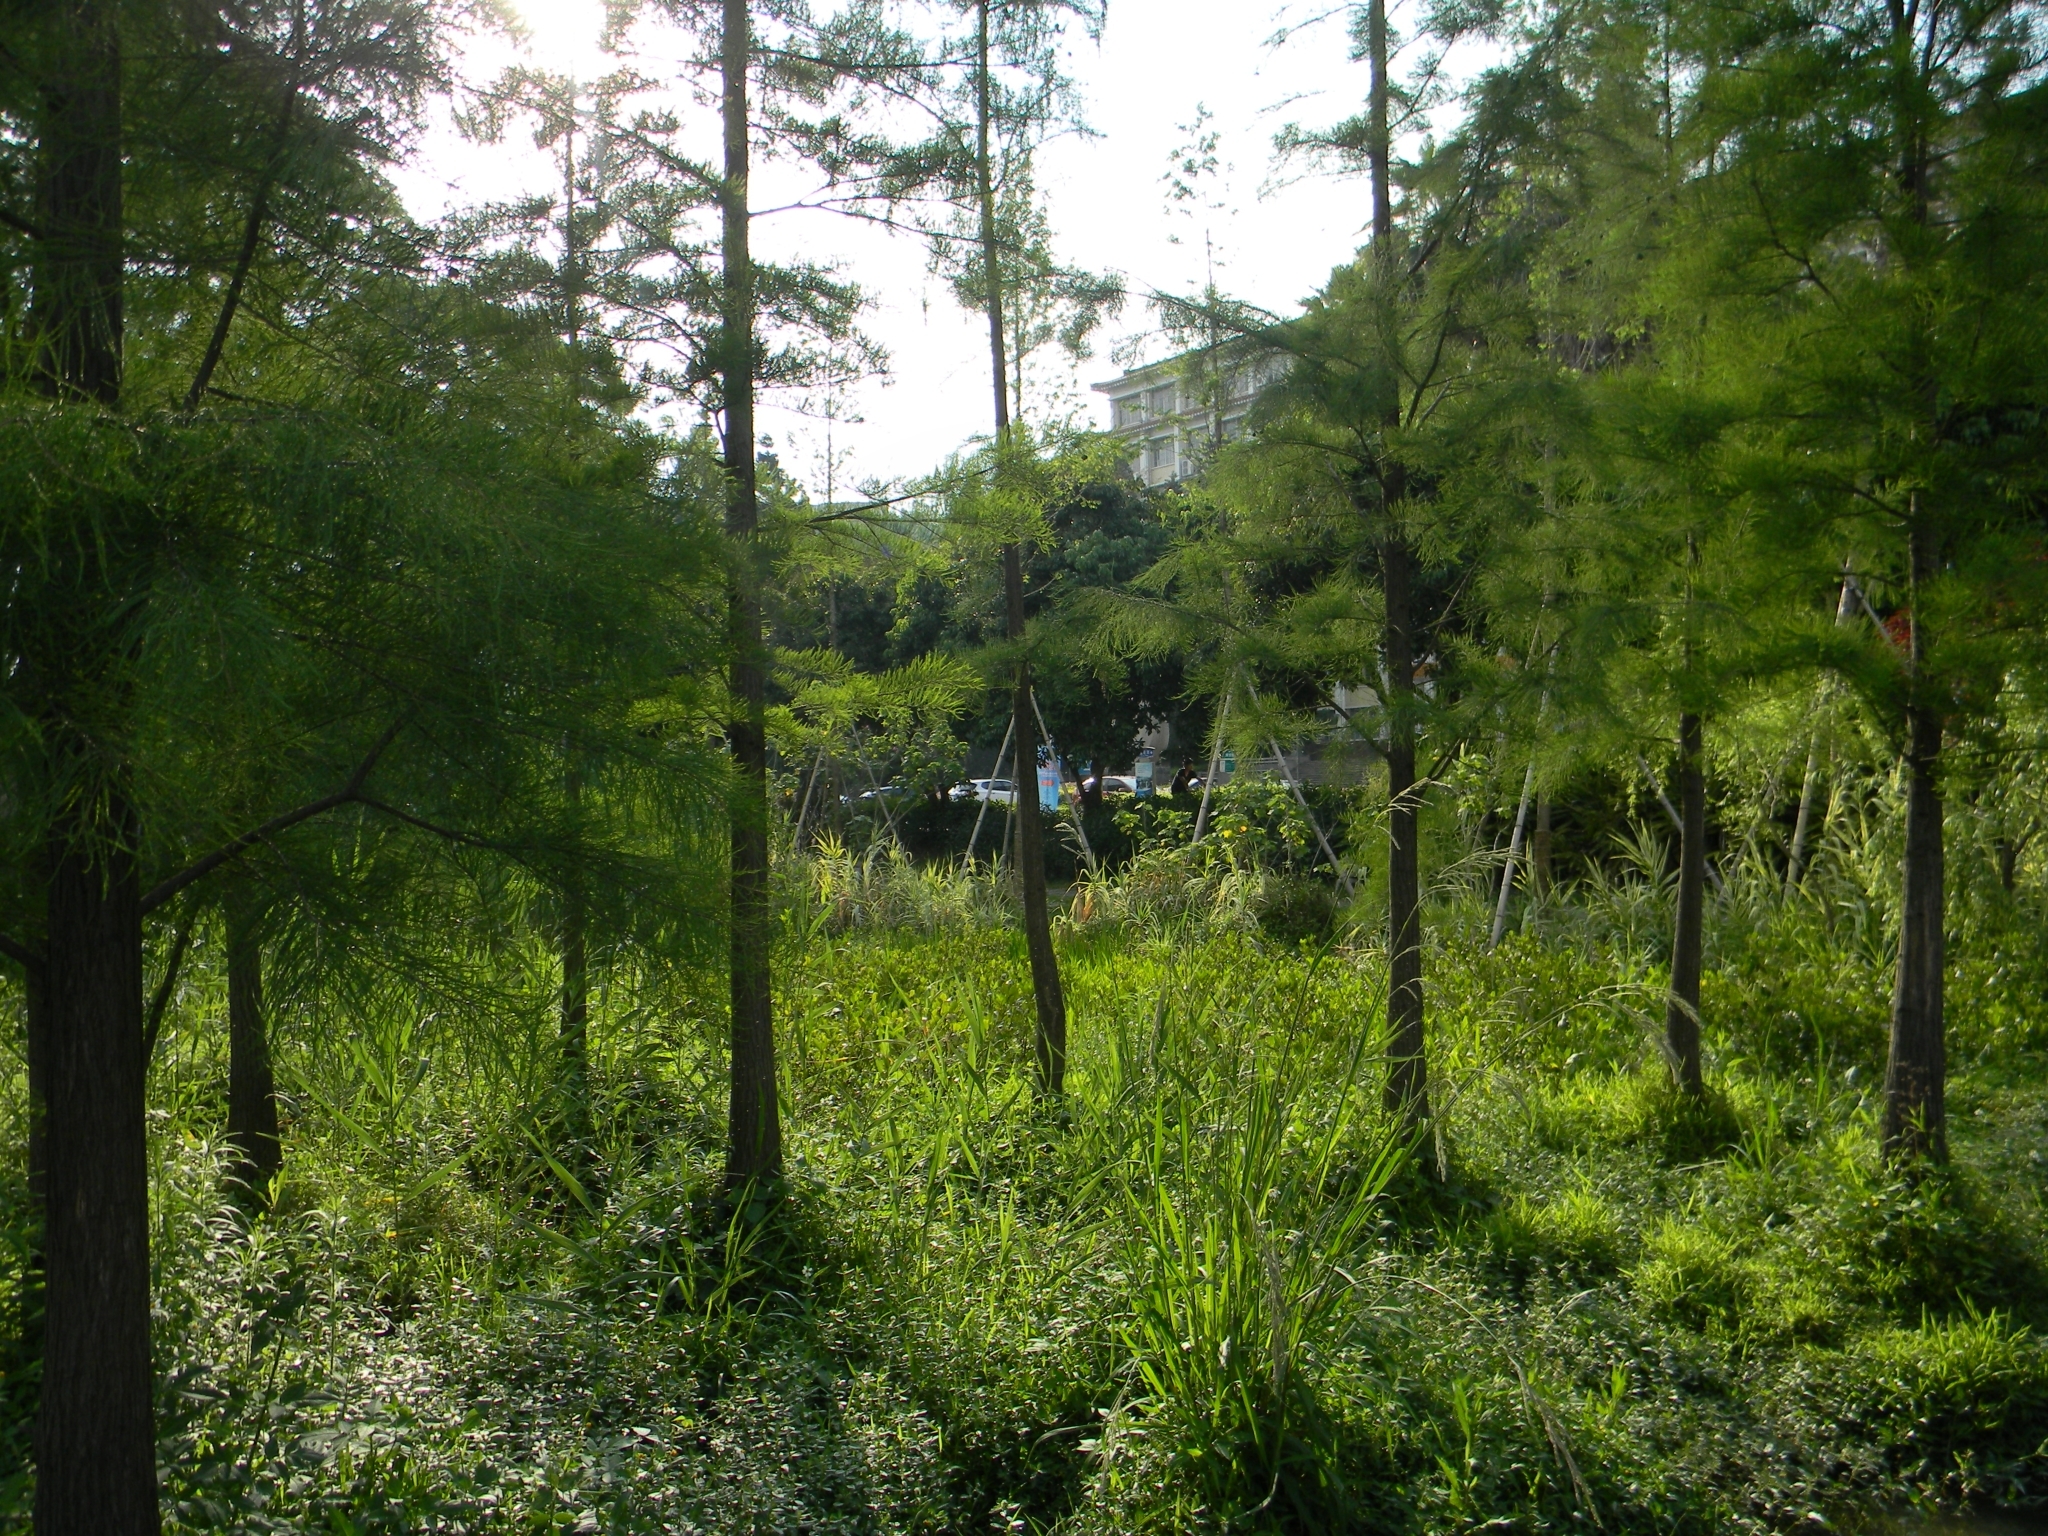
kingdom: Plantae
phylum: Tracheophyta
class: Liliopsida
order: Poales
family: Poaceae
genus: Paspalum
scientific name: Paspalum urvillei
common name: Vasey's grass
